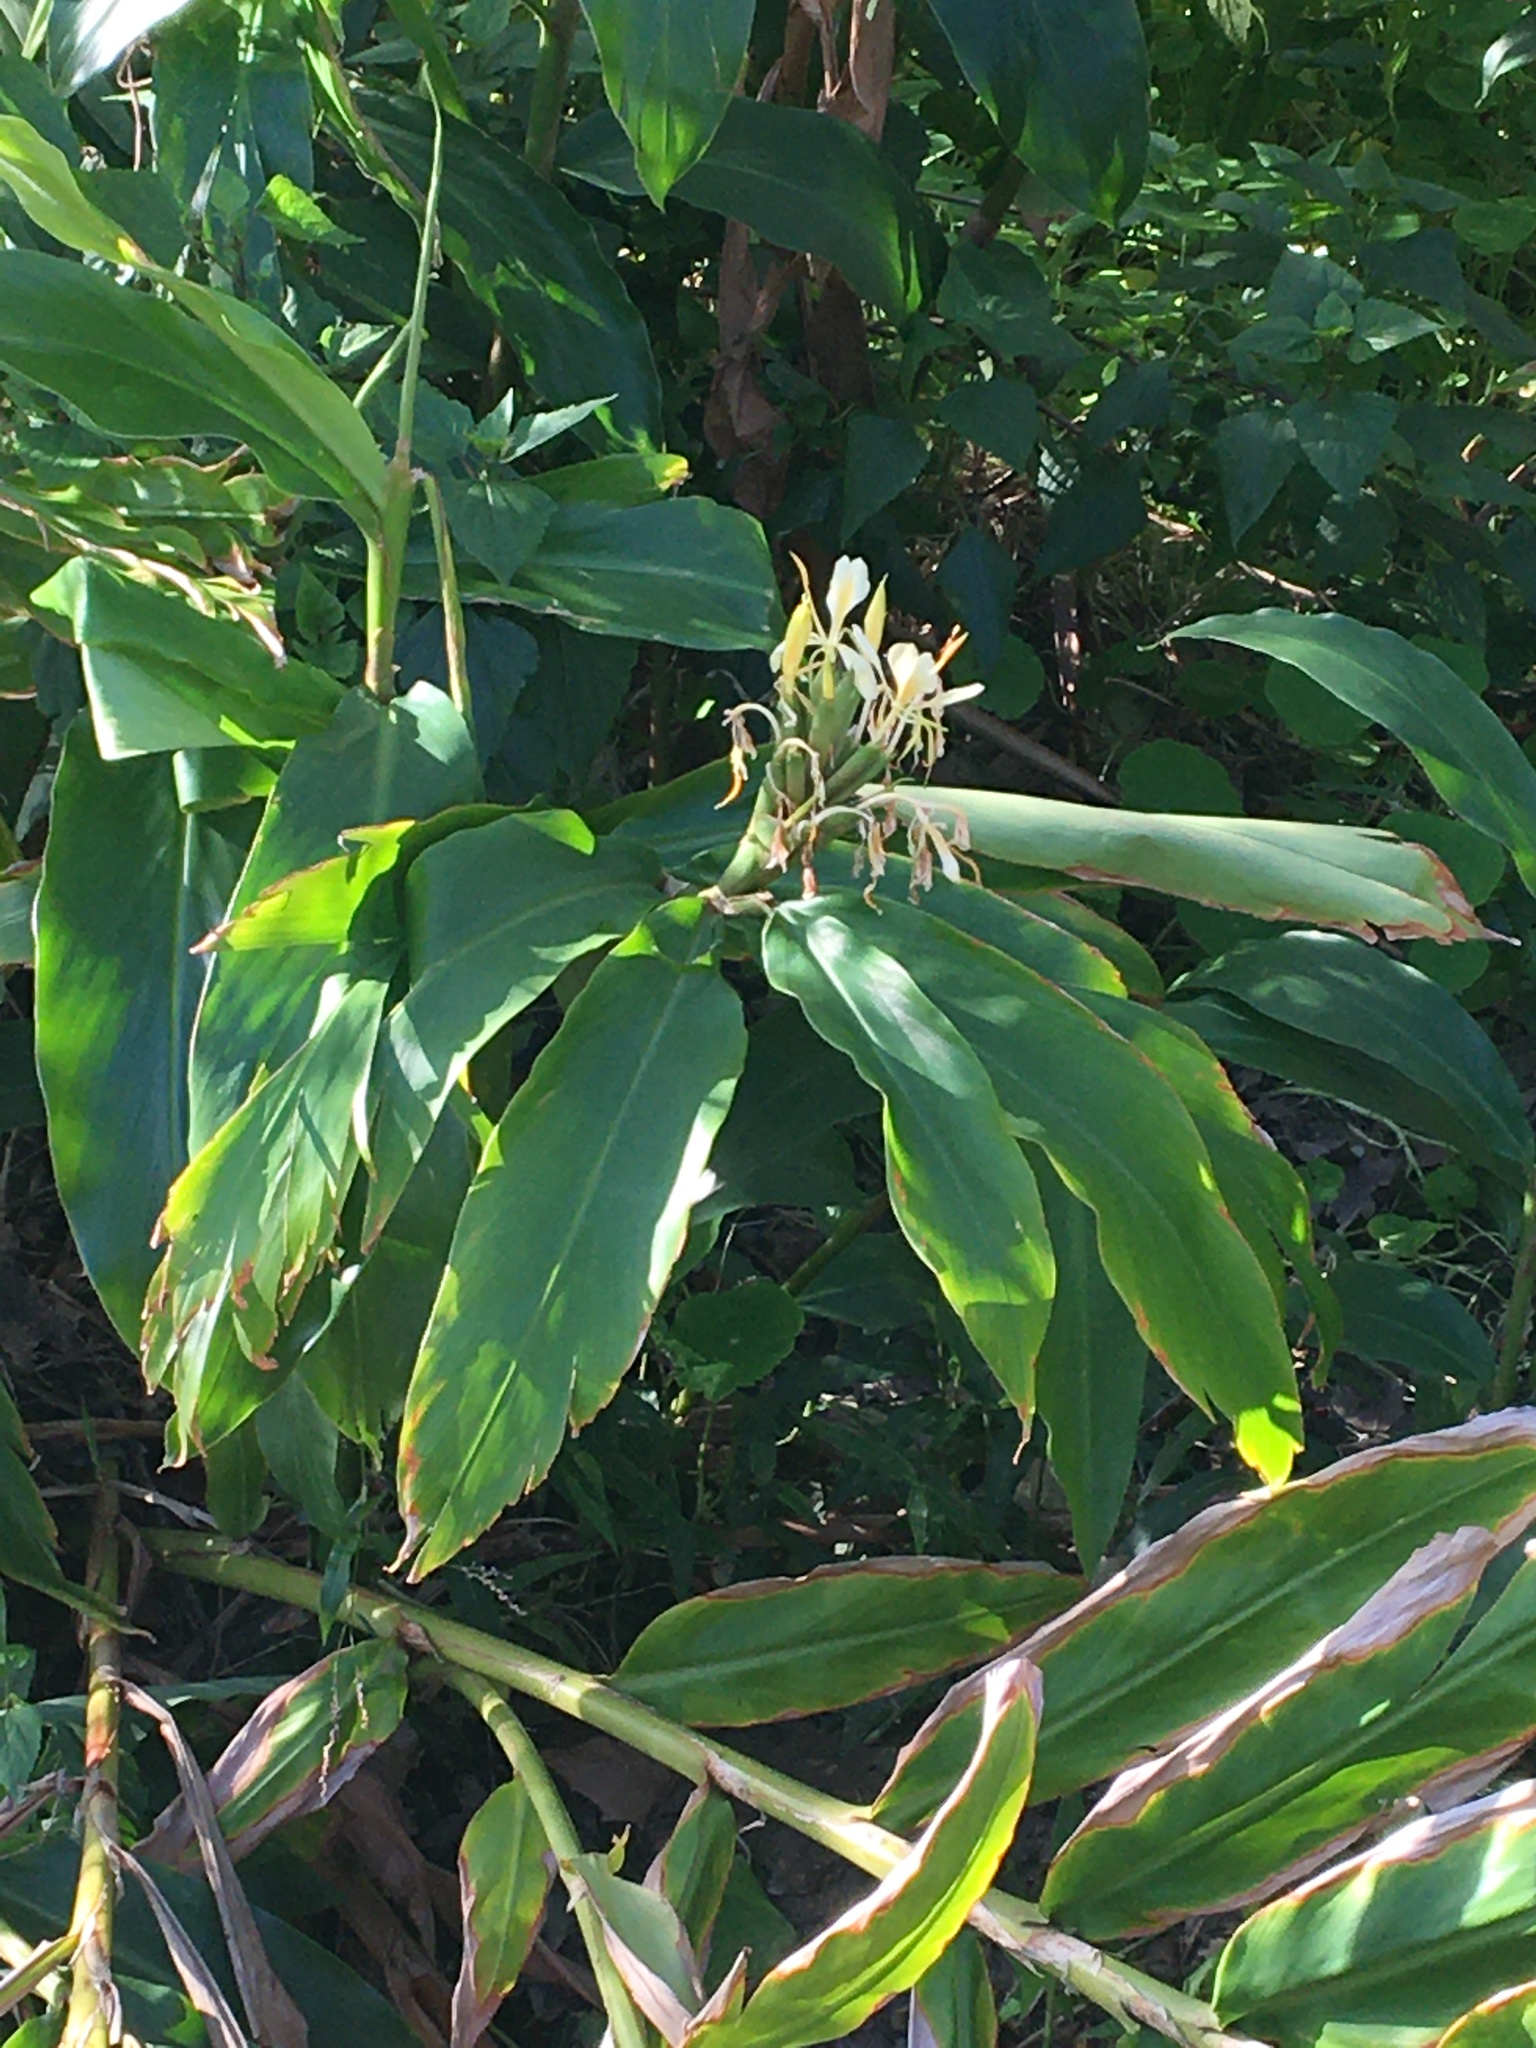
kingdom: Plantae
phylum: Tracheophyta
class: Liliopsida
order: Zingiberales
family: Zingiberaceae
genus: Hedychium
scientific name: Hedychium flavescens
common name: Yellow ginger
